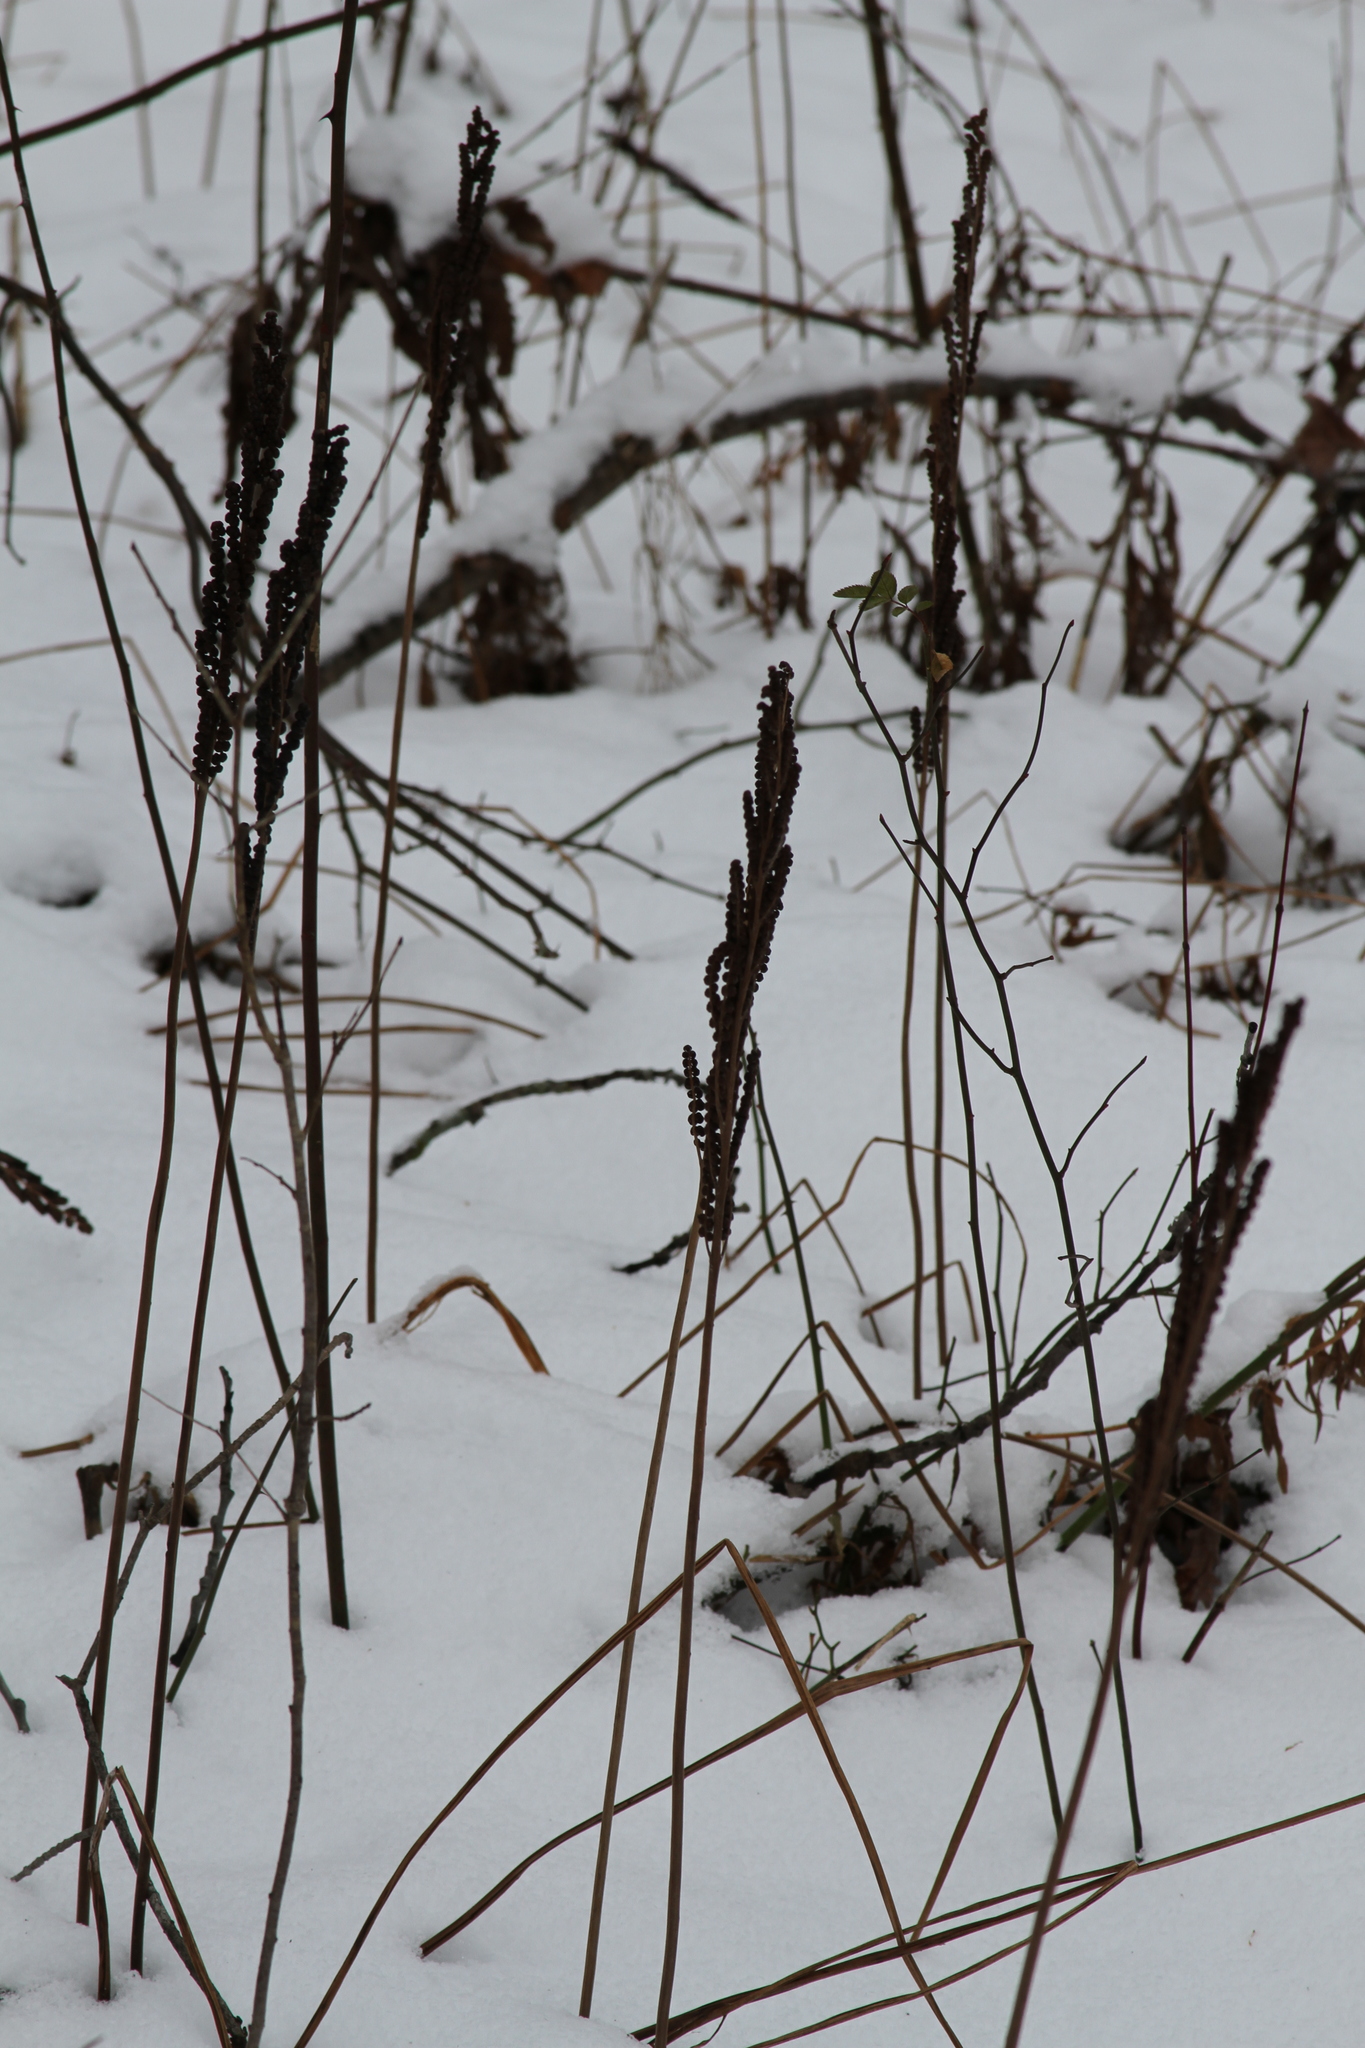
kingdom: Plantae
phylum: Tracheophyta
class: Polypodiopsida
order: Polypodiales
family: Onocleaceae
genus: Onoclea
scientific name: Onoclea sensibilis
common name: Sensitive fern
